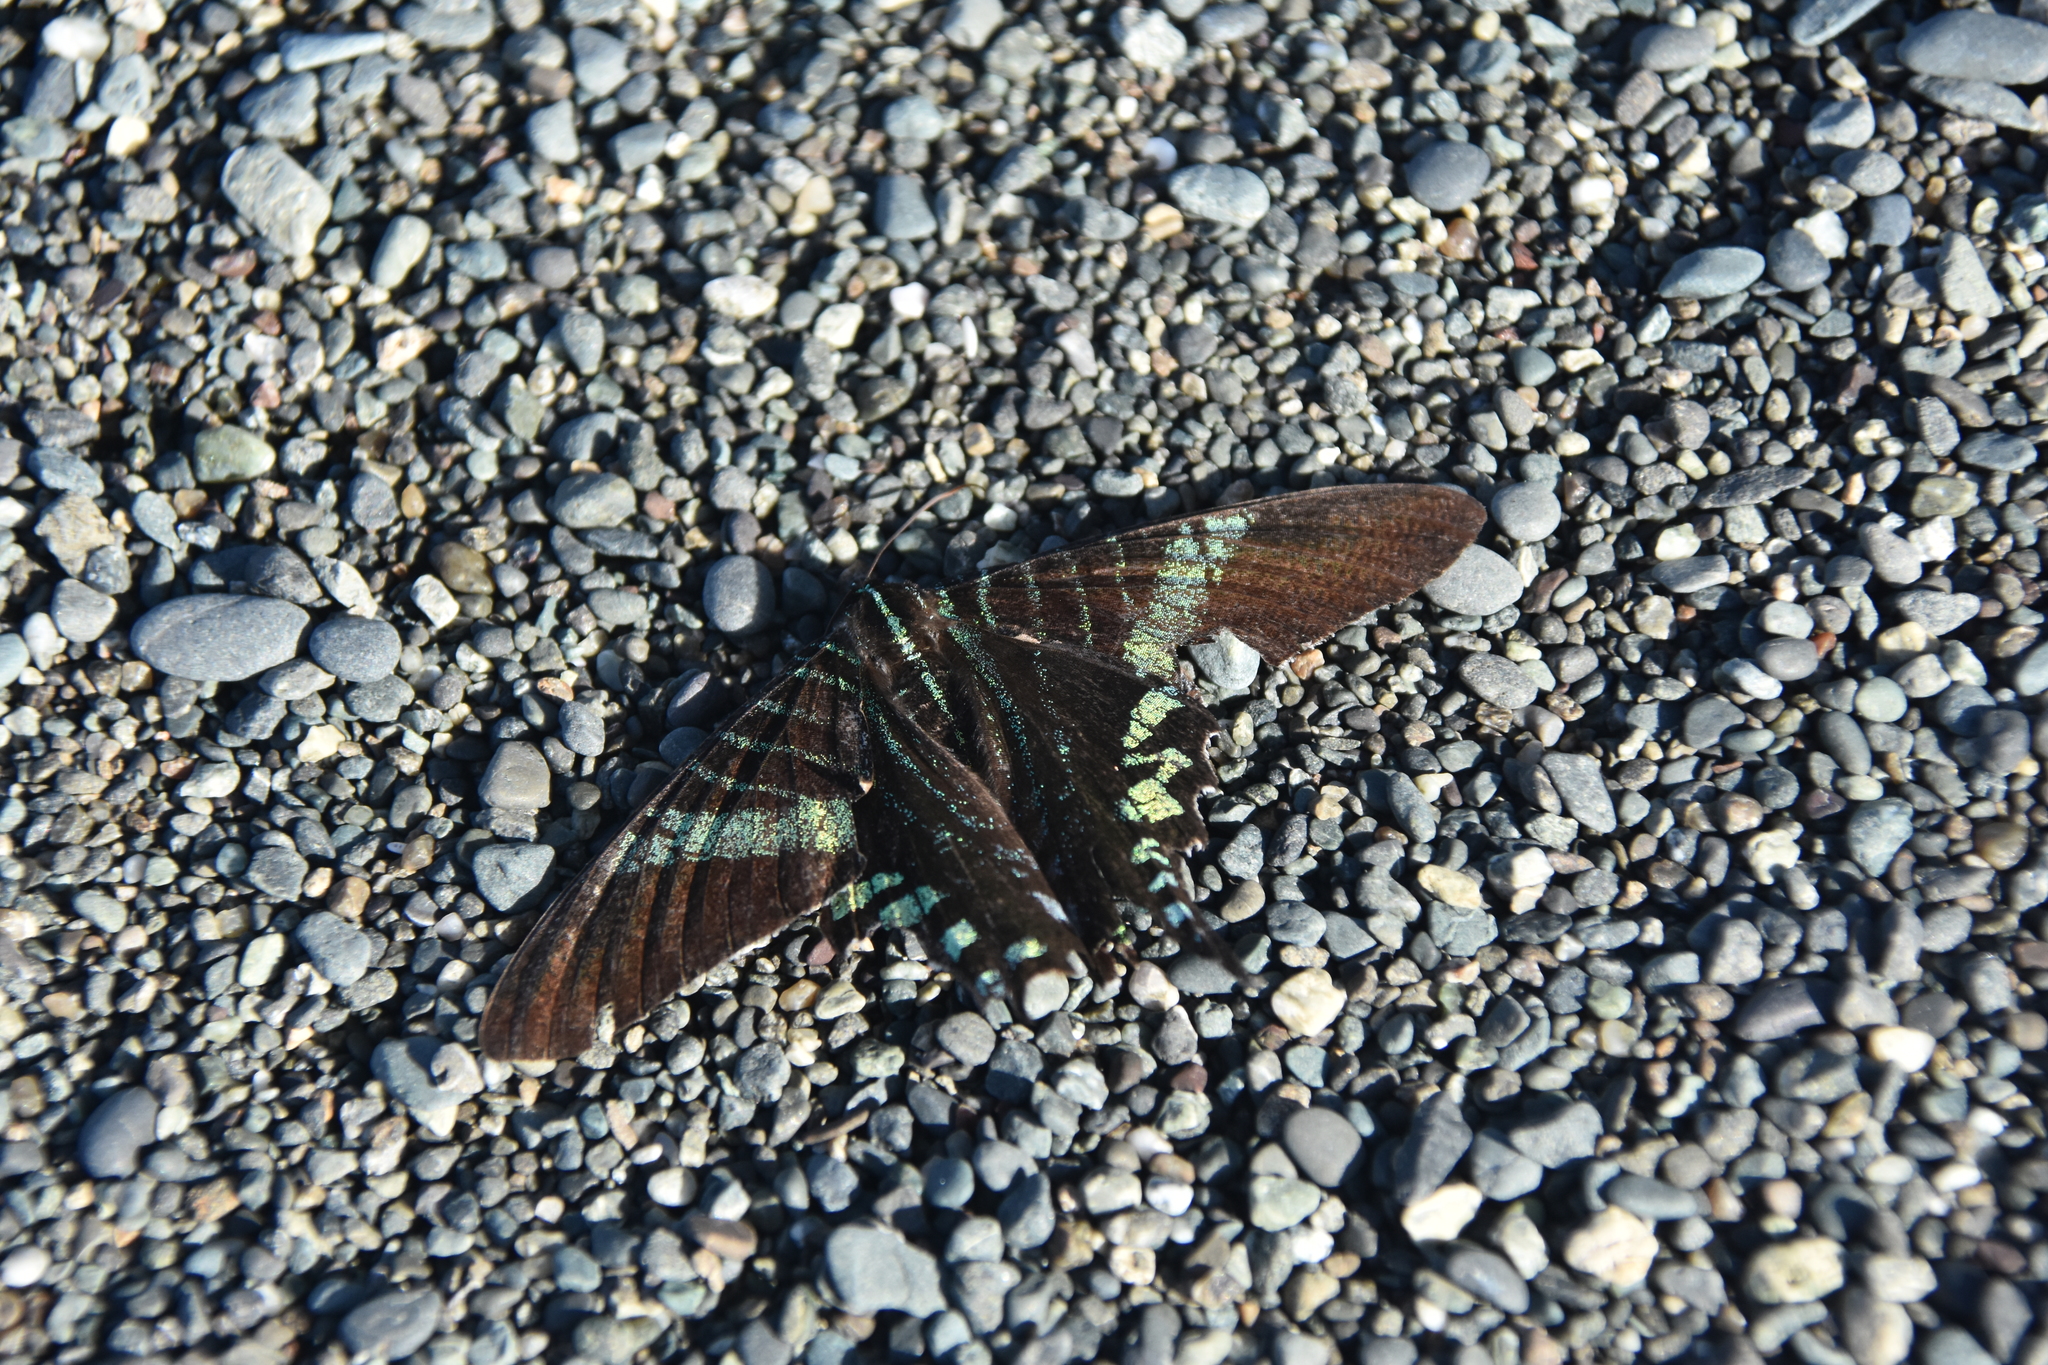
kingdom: Animalia
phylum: Arthropoda
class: Insecta
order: Lepidoptera
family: Uraniidae
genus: Urania
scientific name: Urania fulgens
